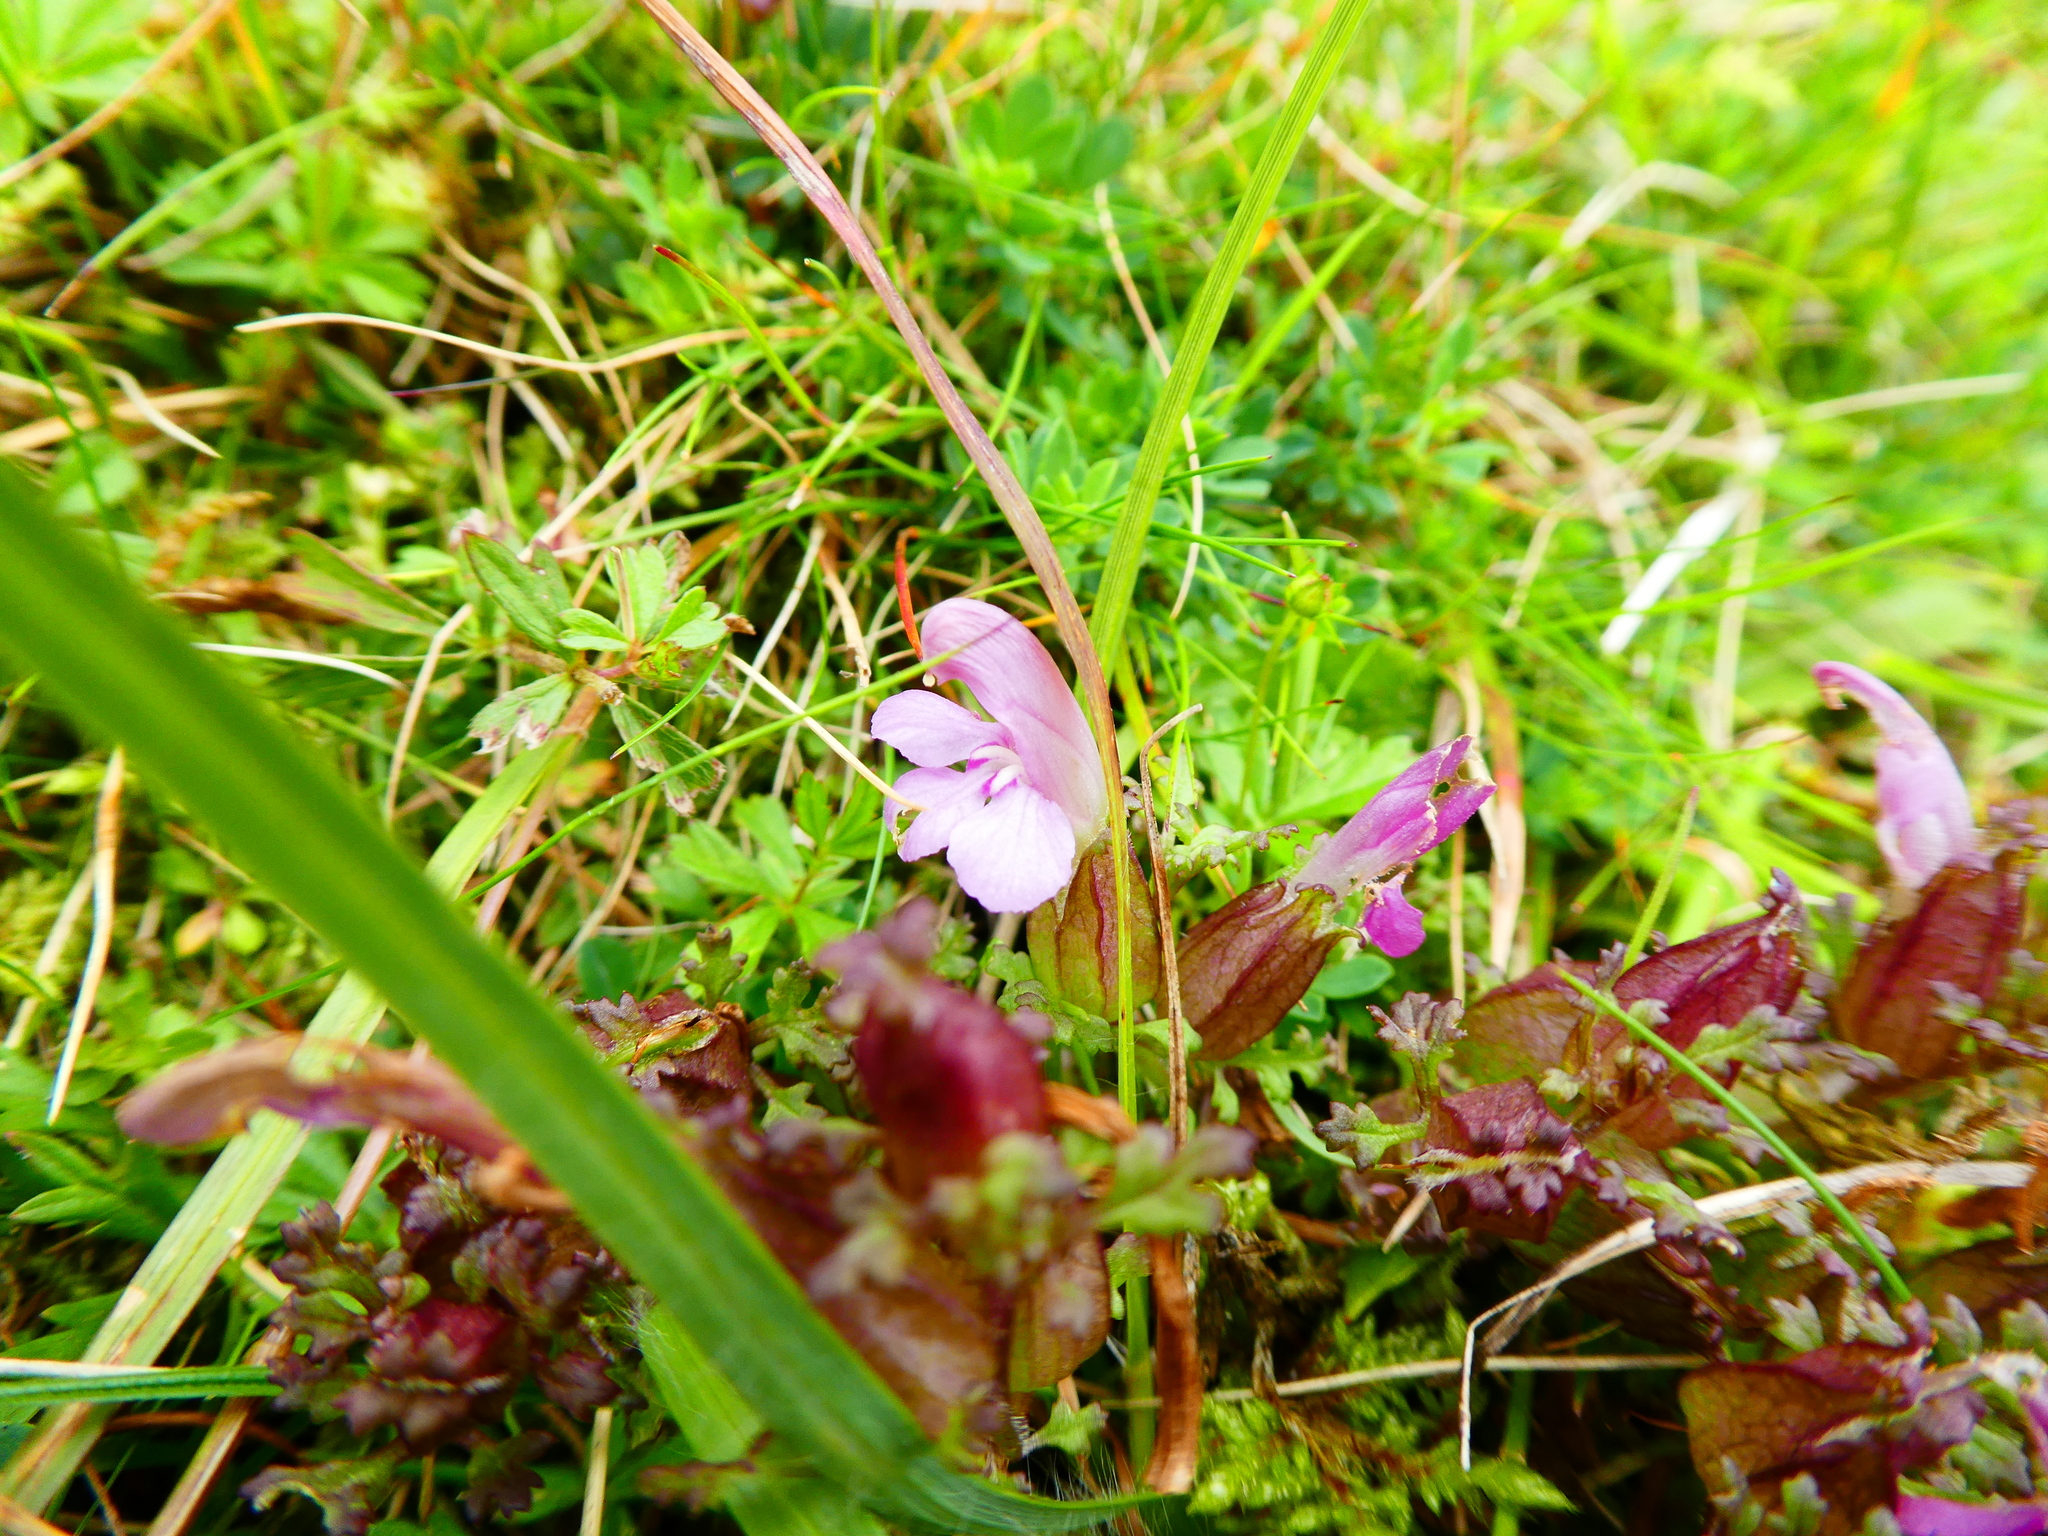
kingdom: Plantae
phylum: Tracheophyta
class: Magnoliopsida
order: Lamiales
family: Orobanchaceae
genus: Pedicularis
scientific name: Pedicularis sylvatica
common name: Lousewort
